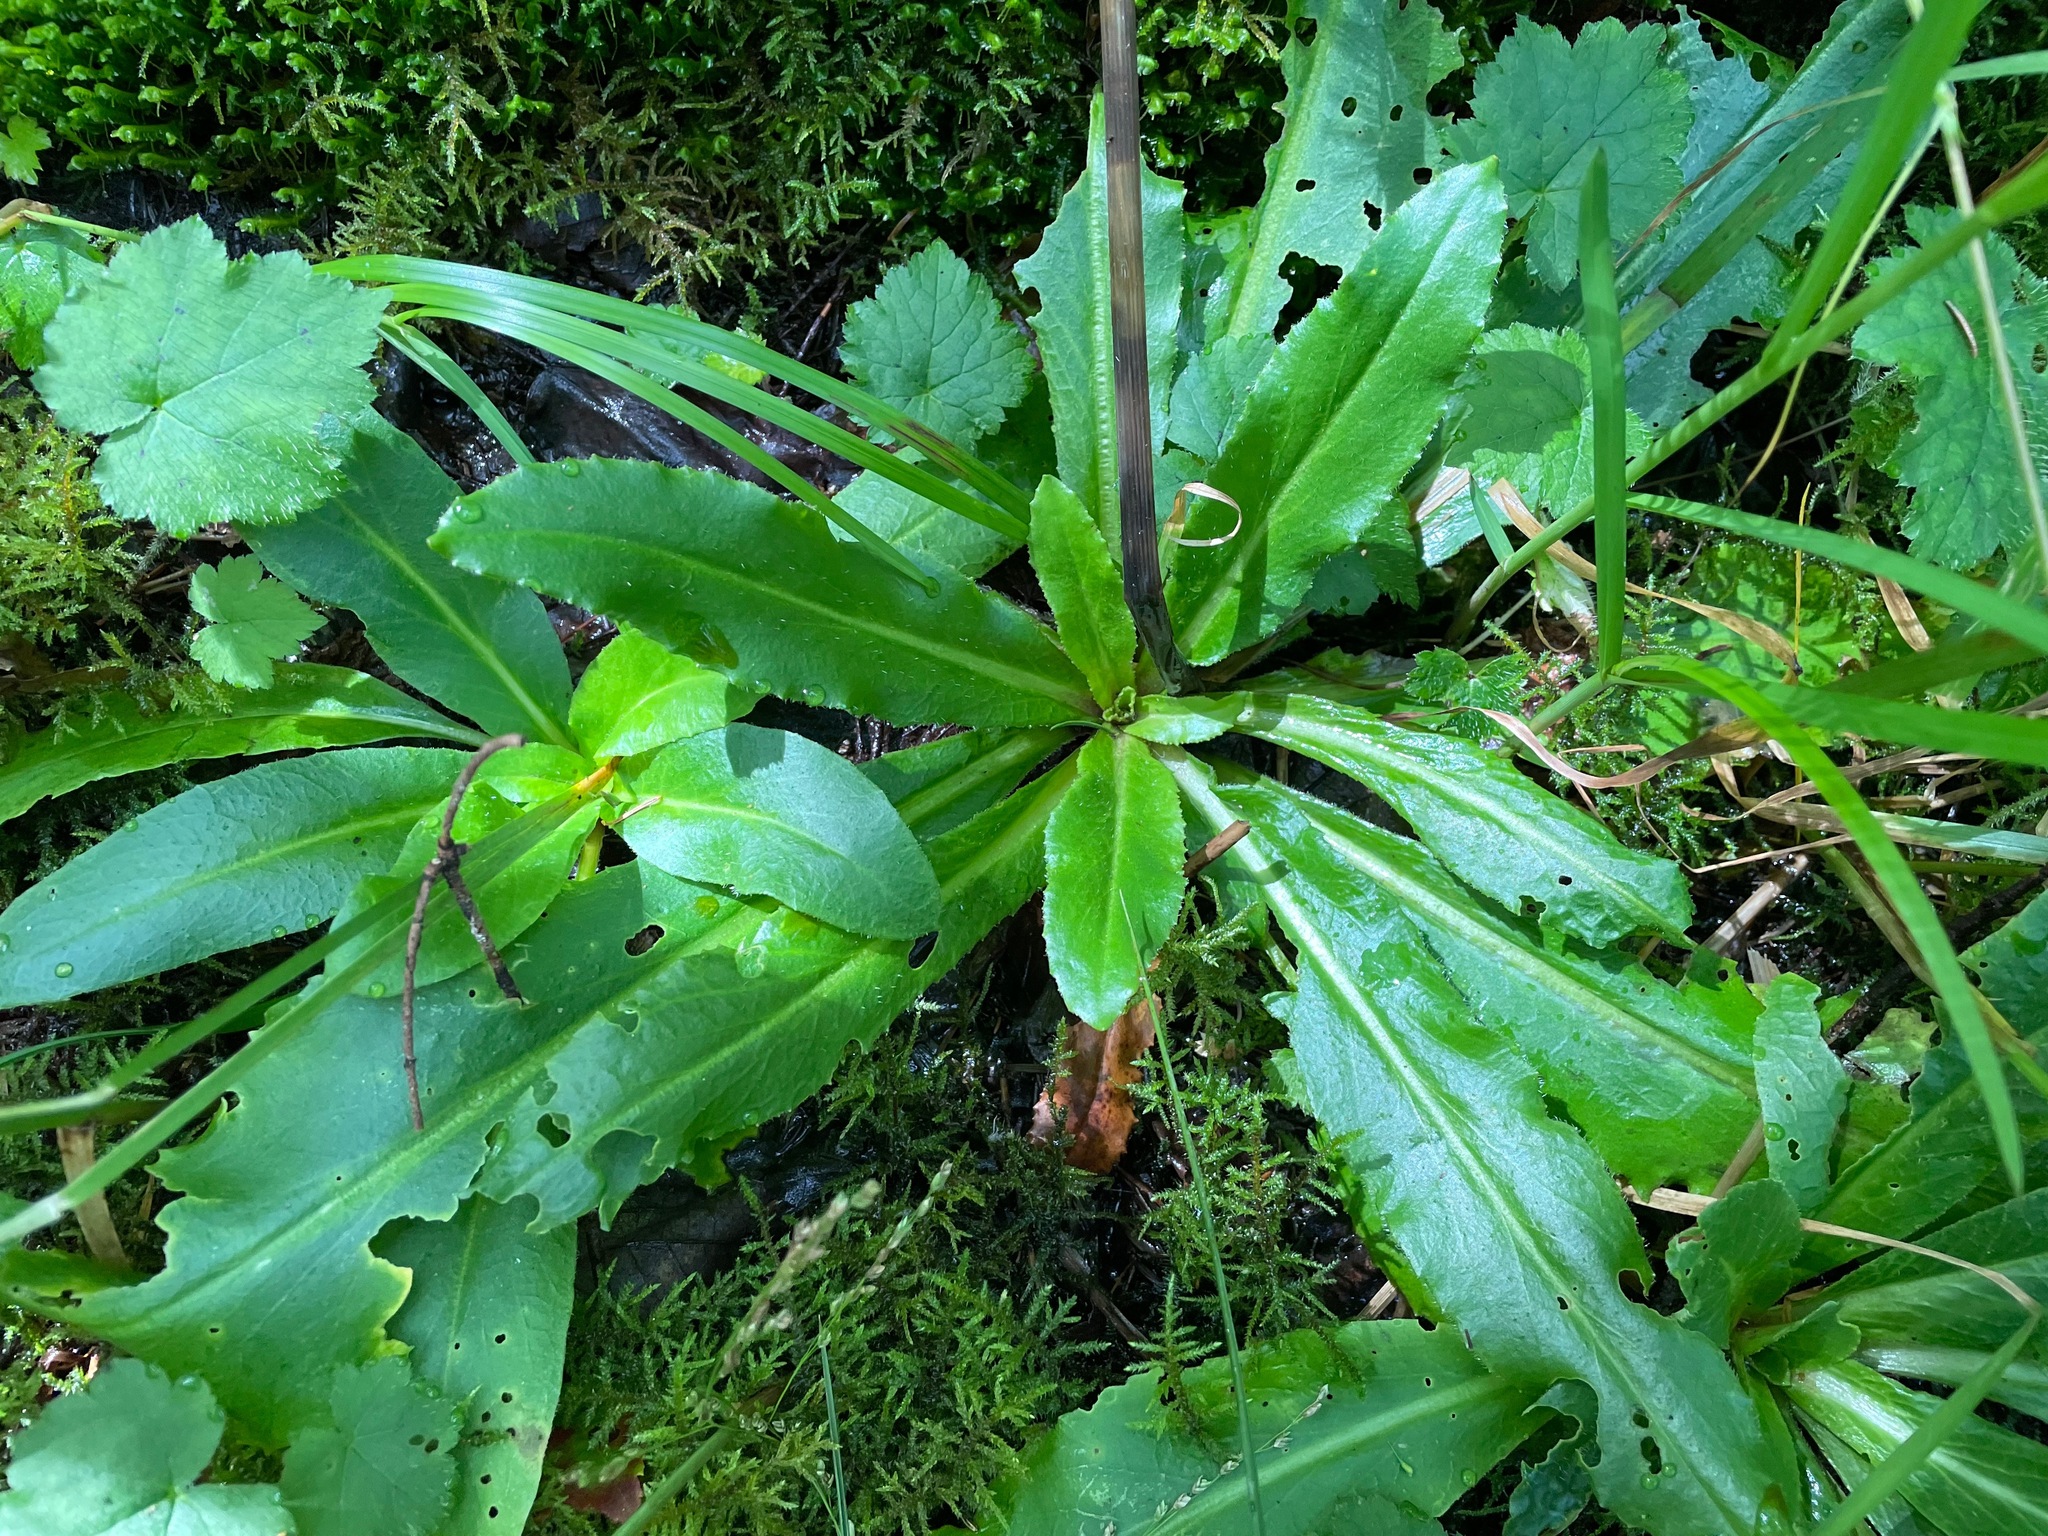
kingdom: Plantae
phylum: Tracheophyta
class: Magnoliopsida
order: Saxifragales
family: Saxifragaceae
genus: Micranthes
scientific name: Micranthes pensylvanica
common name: Marsh saxifrage
